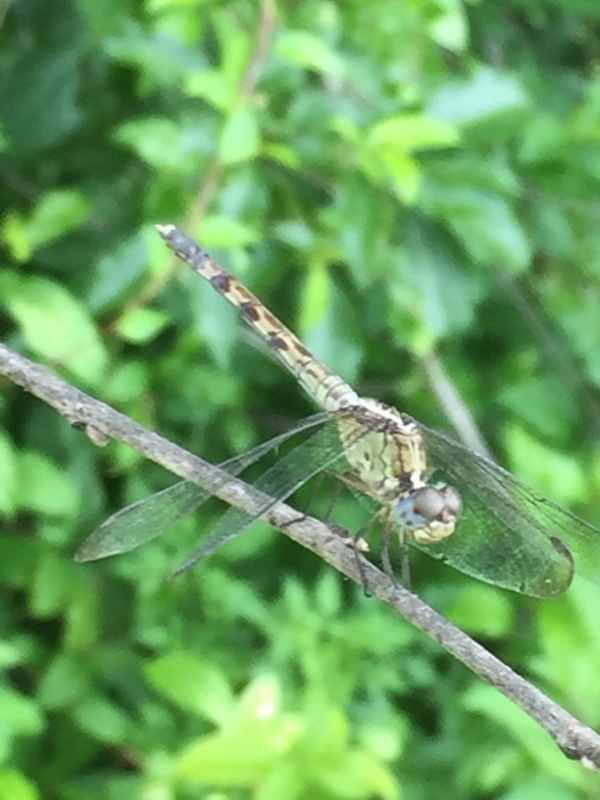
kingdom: Animalia
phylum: Arthropoda
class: Insecta
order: Odonata
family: Libellulidae
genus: Erythrodiplax
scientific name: Erythrodiplax umbrata
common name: Band-winged dragonlet
